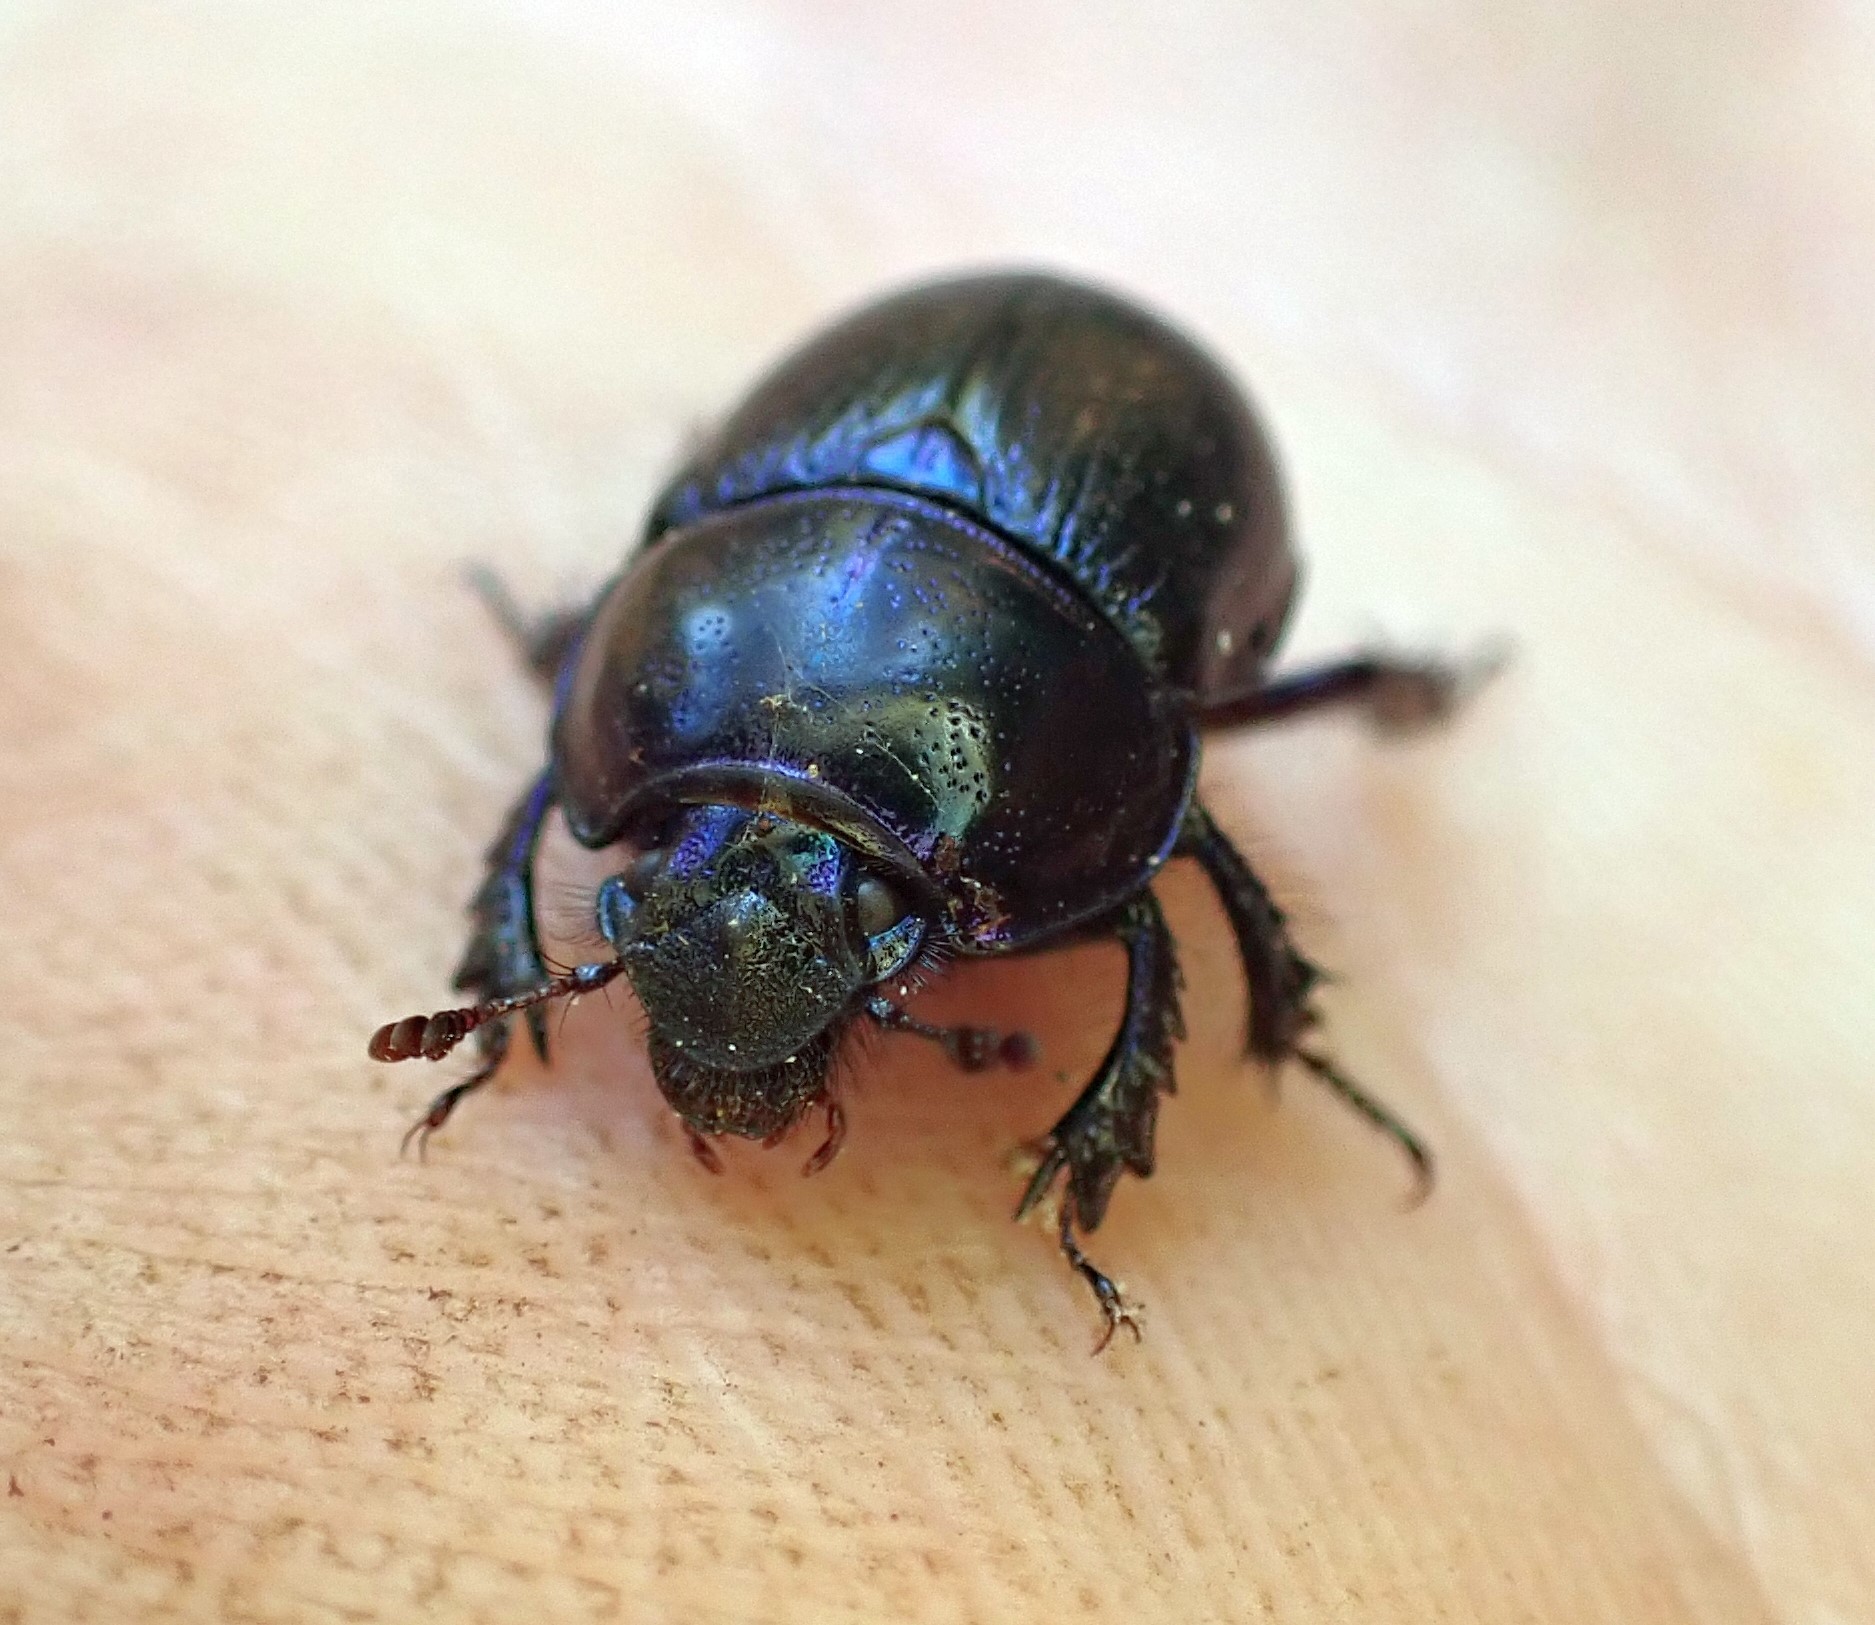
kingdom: Animalia
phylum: Arthropoda
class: Insecta
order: Coleoptera
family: Geotrupidae
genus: Anoplotrupes
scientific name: Anoplotrupes stercorosus
